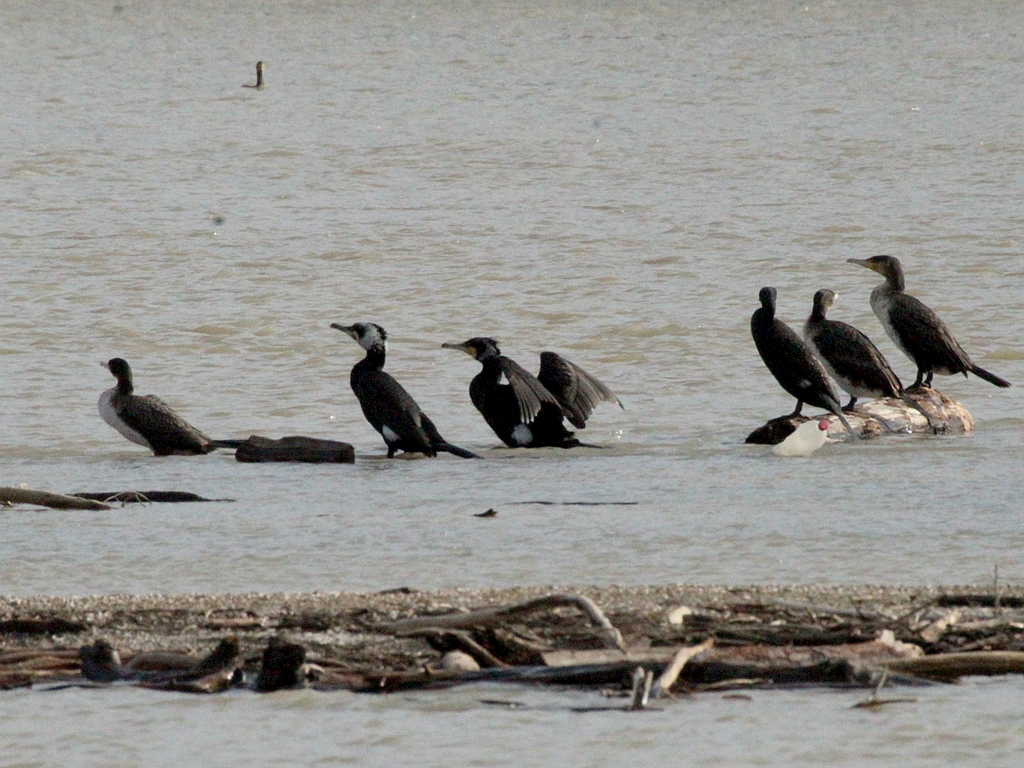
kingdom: Animalia
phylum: Chordata
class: Aves
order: Suliformes
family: Phalacrocoracidae
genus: Phalacrocorax
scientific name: Phalacrocorax carbo
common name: Great cormorant
